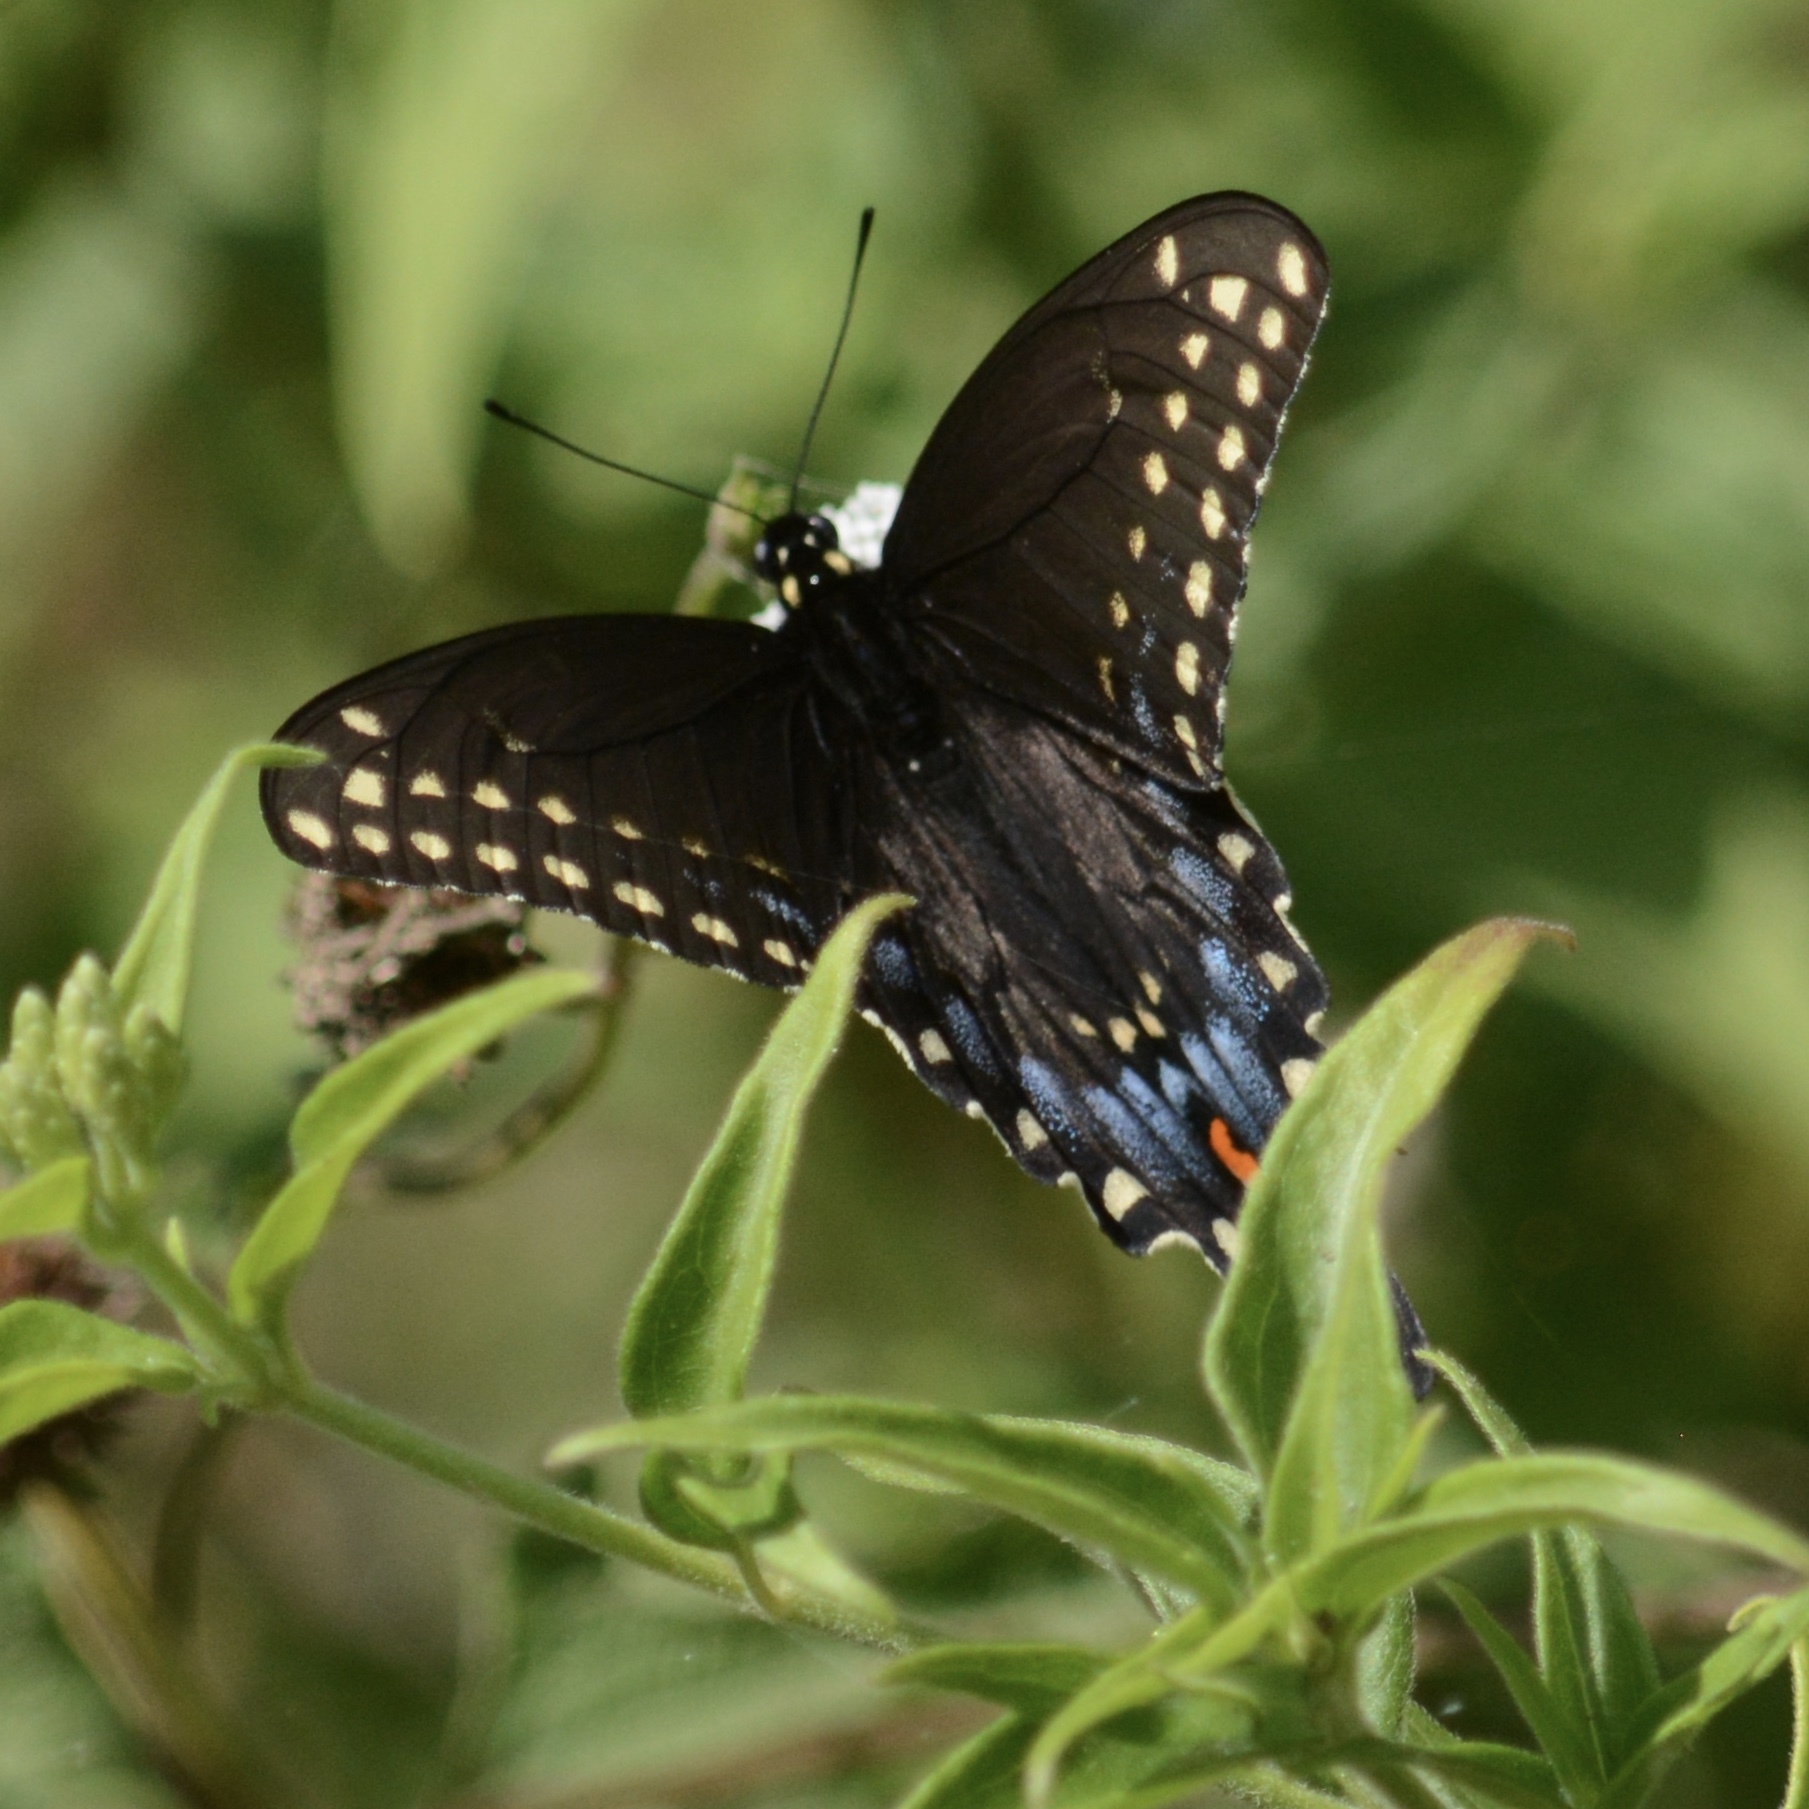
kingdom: Animalia
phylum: Arthropoda
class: Insecta
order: Lepidoptera
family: Papilionidae
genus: Papilio
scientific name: Papilio polyxenes
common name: Black swallowtail
